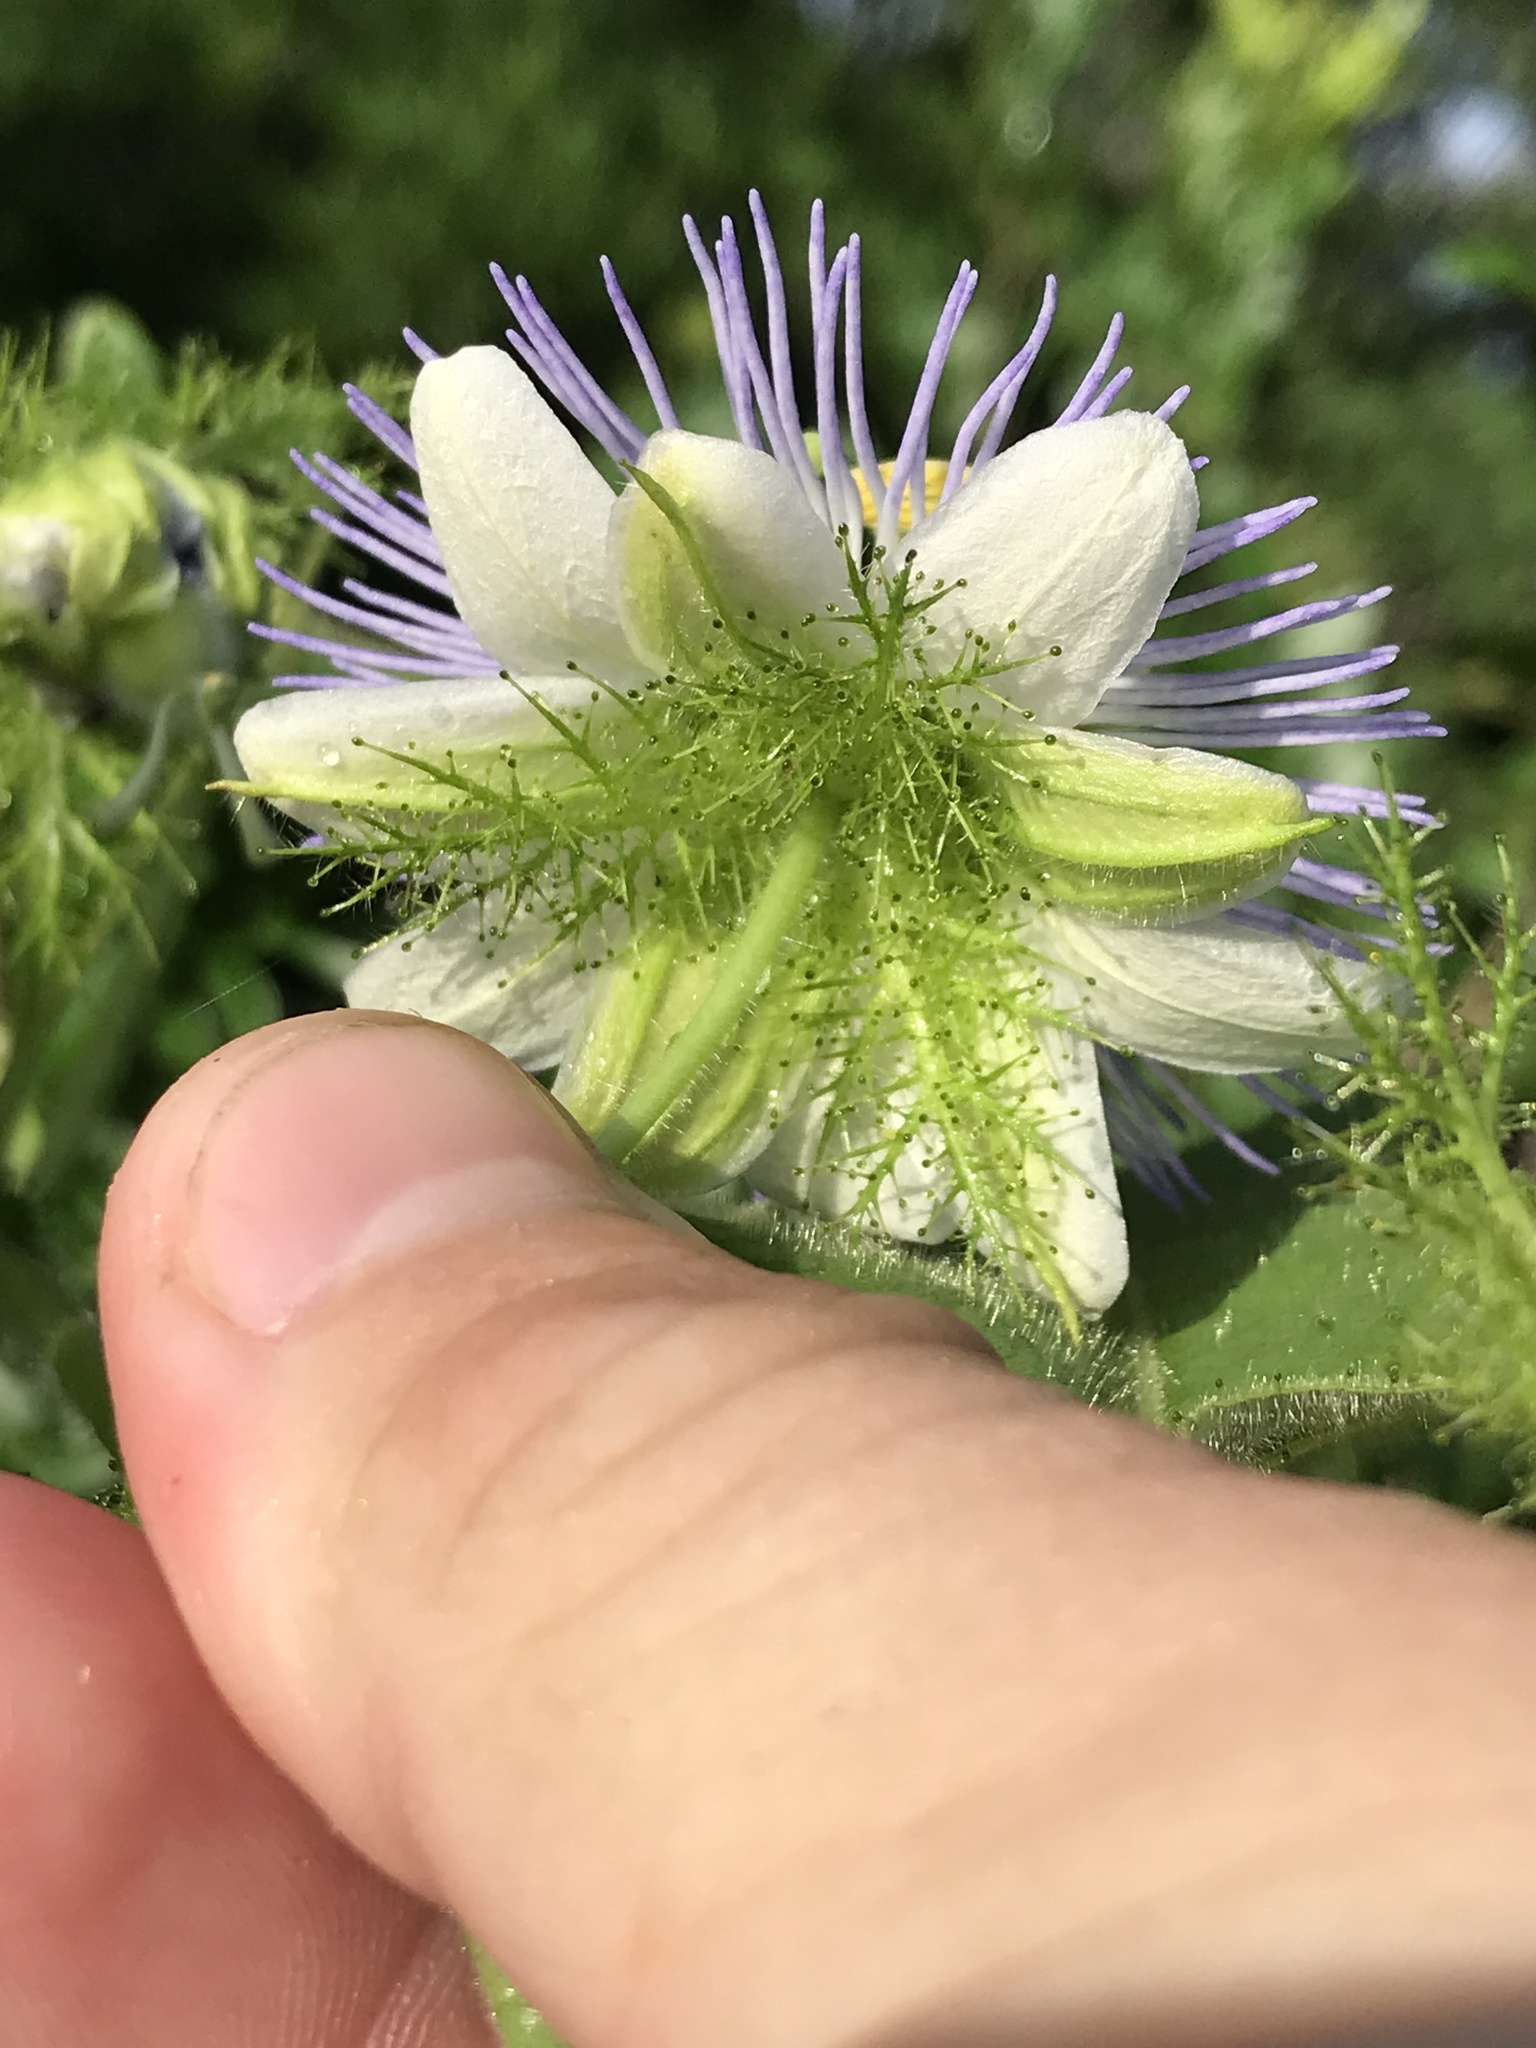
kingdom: Plantae
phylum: Tracheophyta
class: Magnoliopsida
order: Malpighiales
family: Passifloraceae
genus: Passiflora
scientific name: Passiflora foetida
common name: Fetid passionflower
